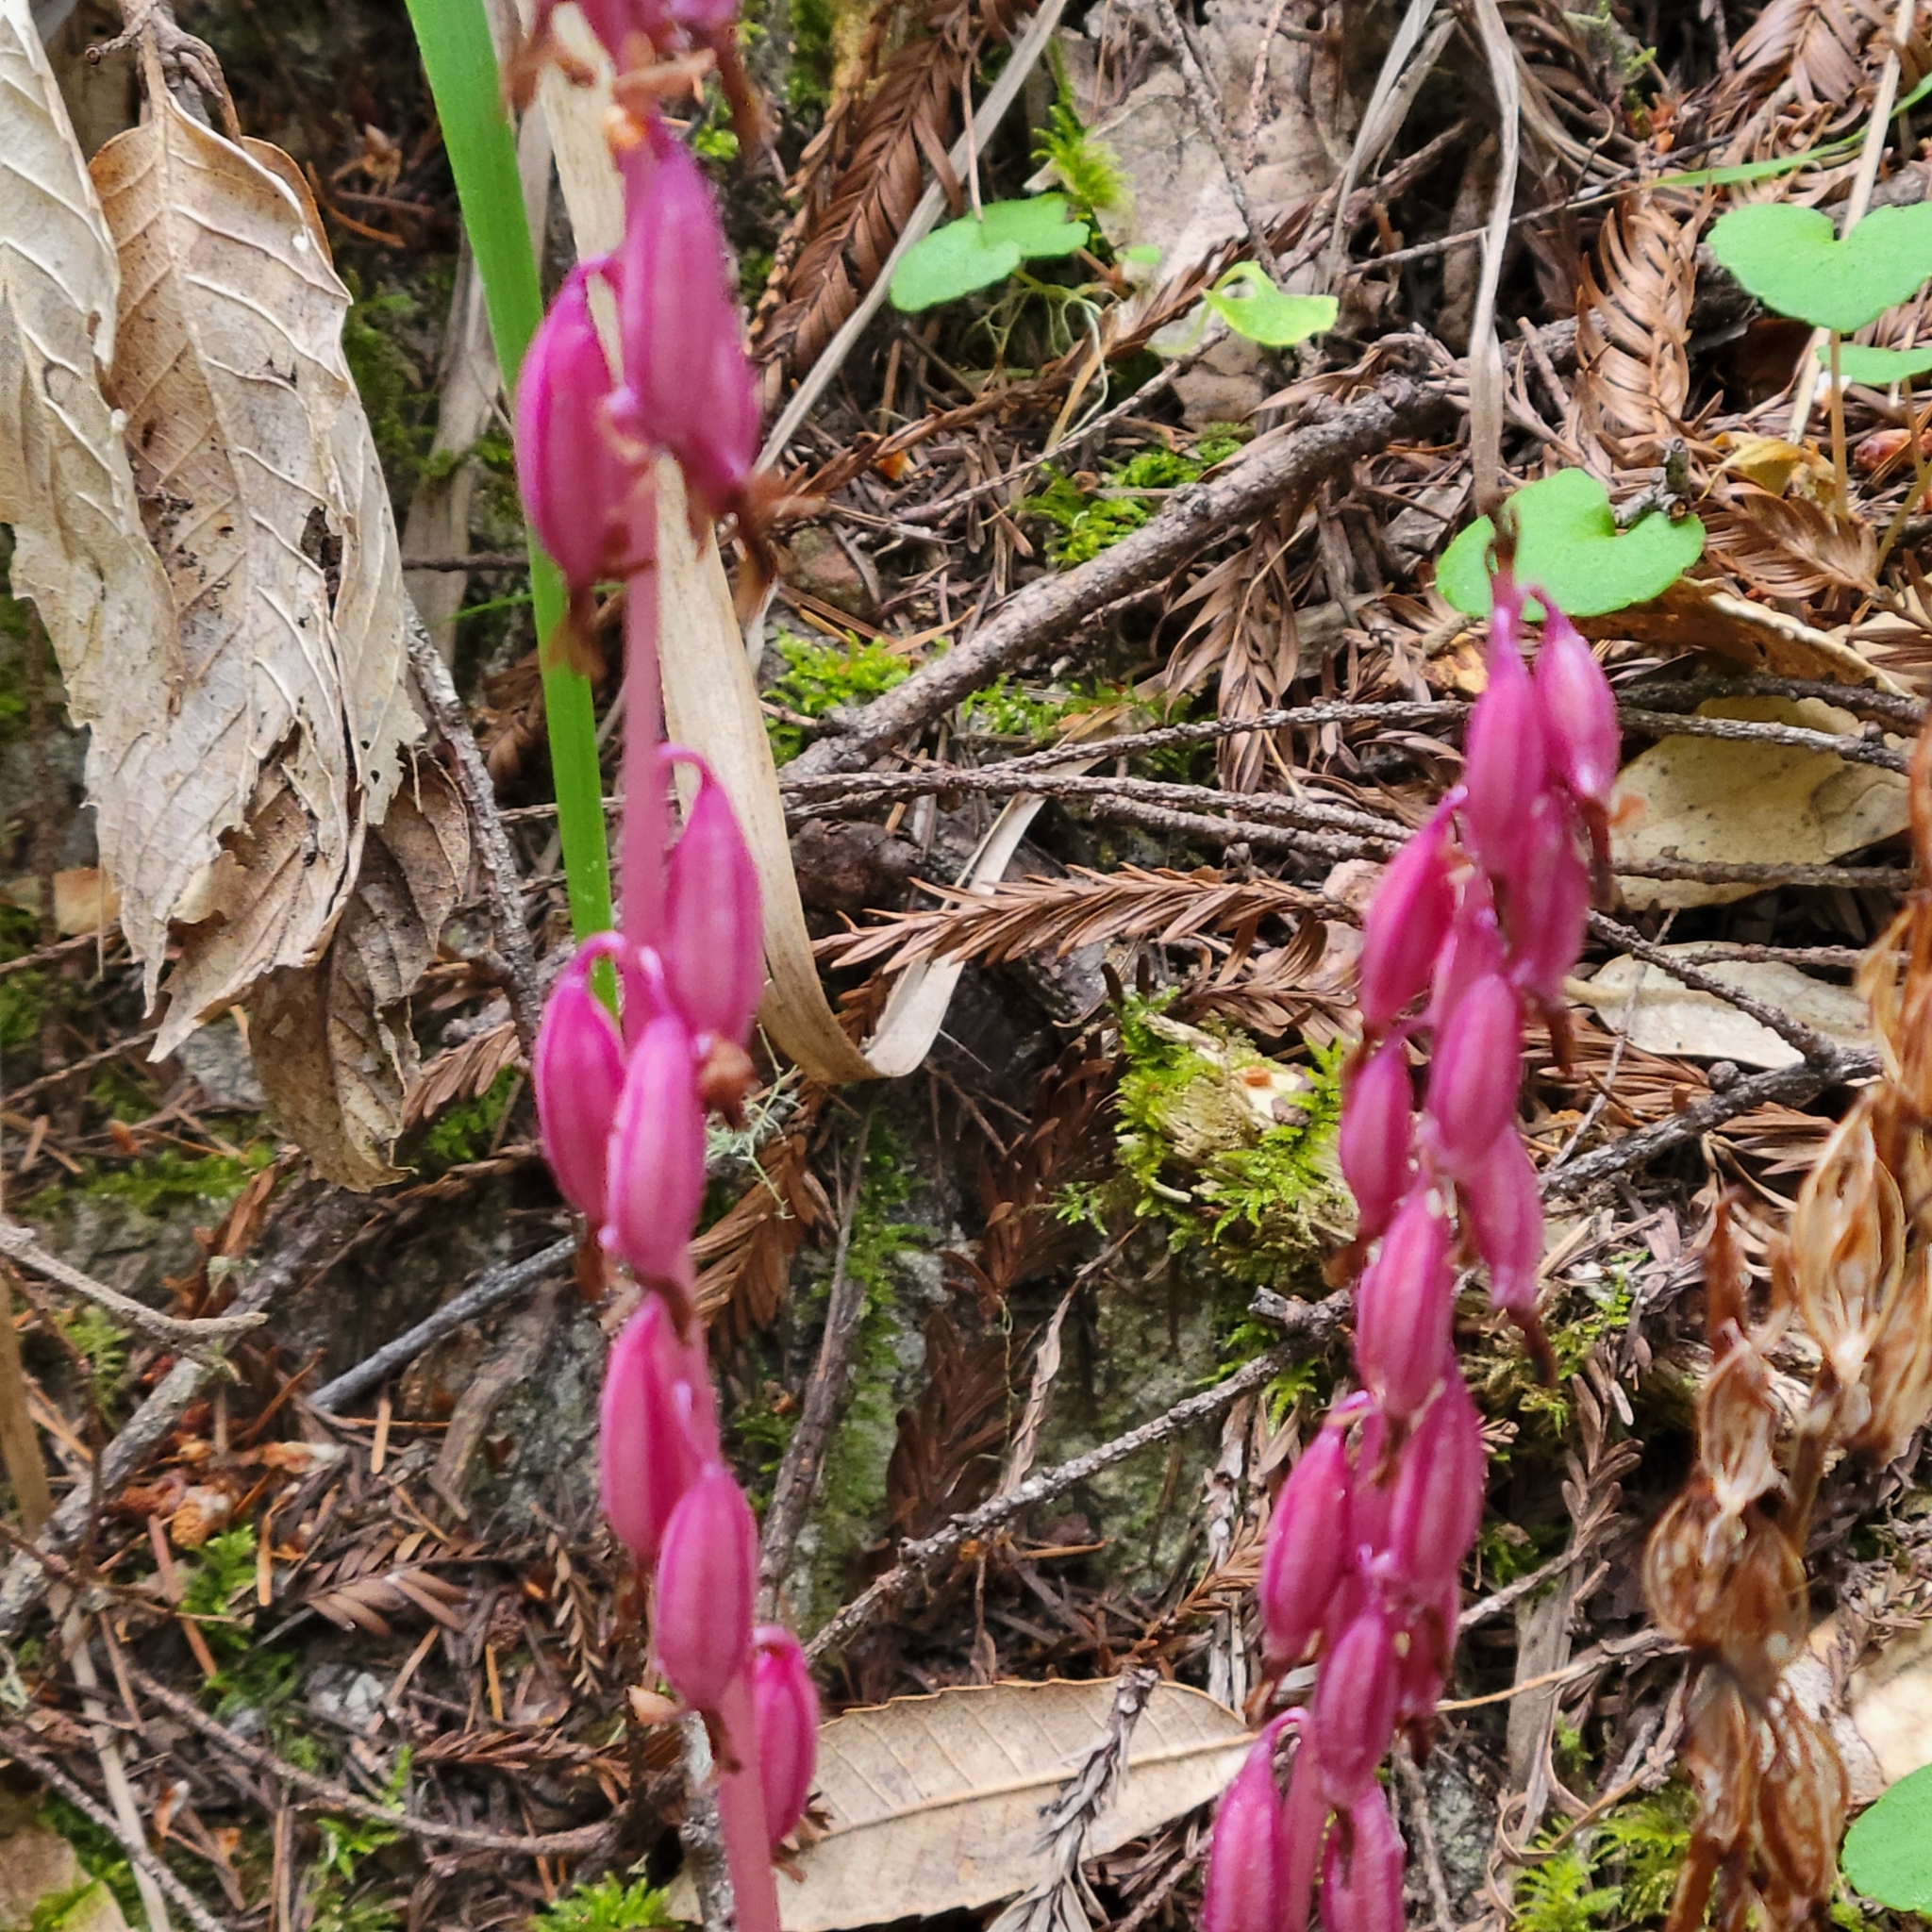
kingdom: Plantae
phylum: Tracheophyta
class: Liliopsida
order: Asparagales
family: Orchidaceae
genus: Corallorhiza
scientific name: Corallorhiza mertensiana
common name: Pacific coralroot
